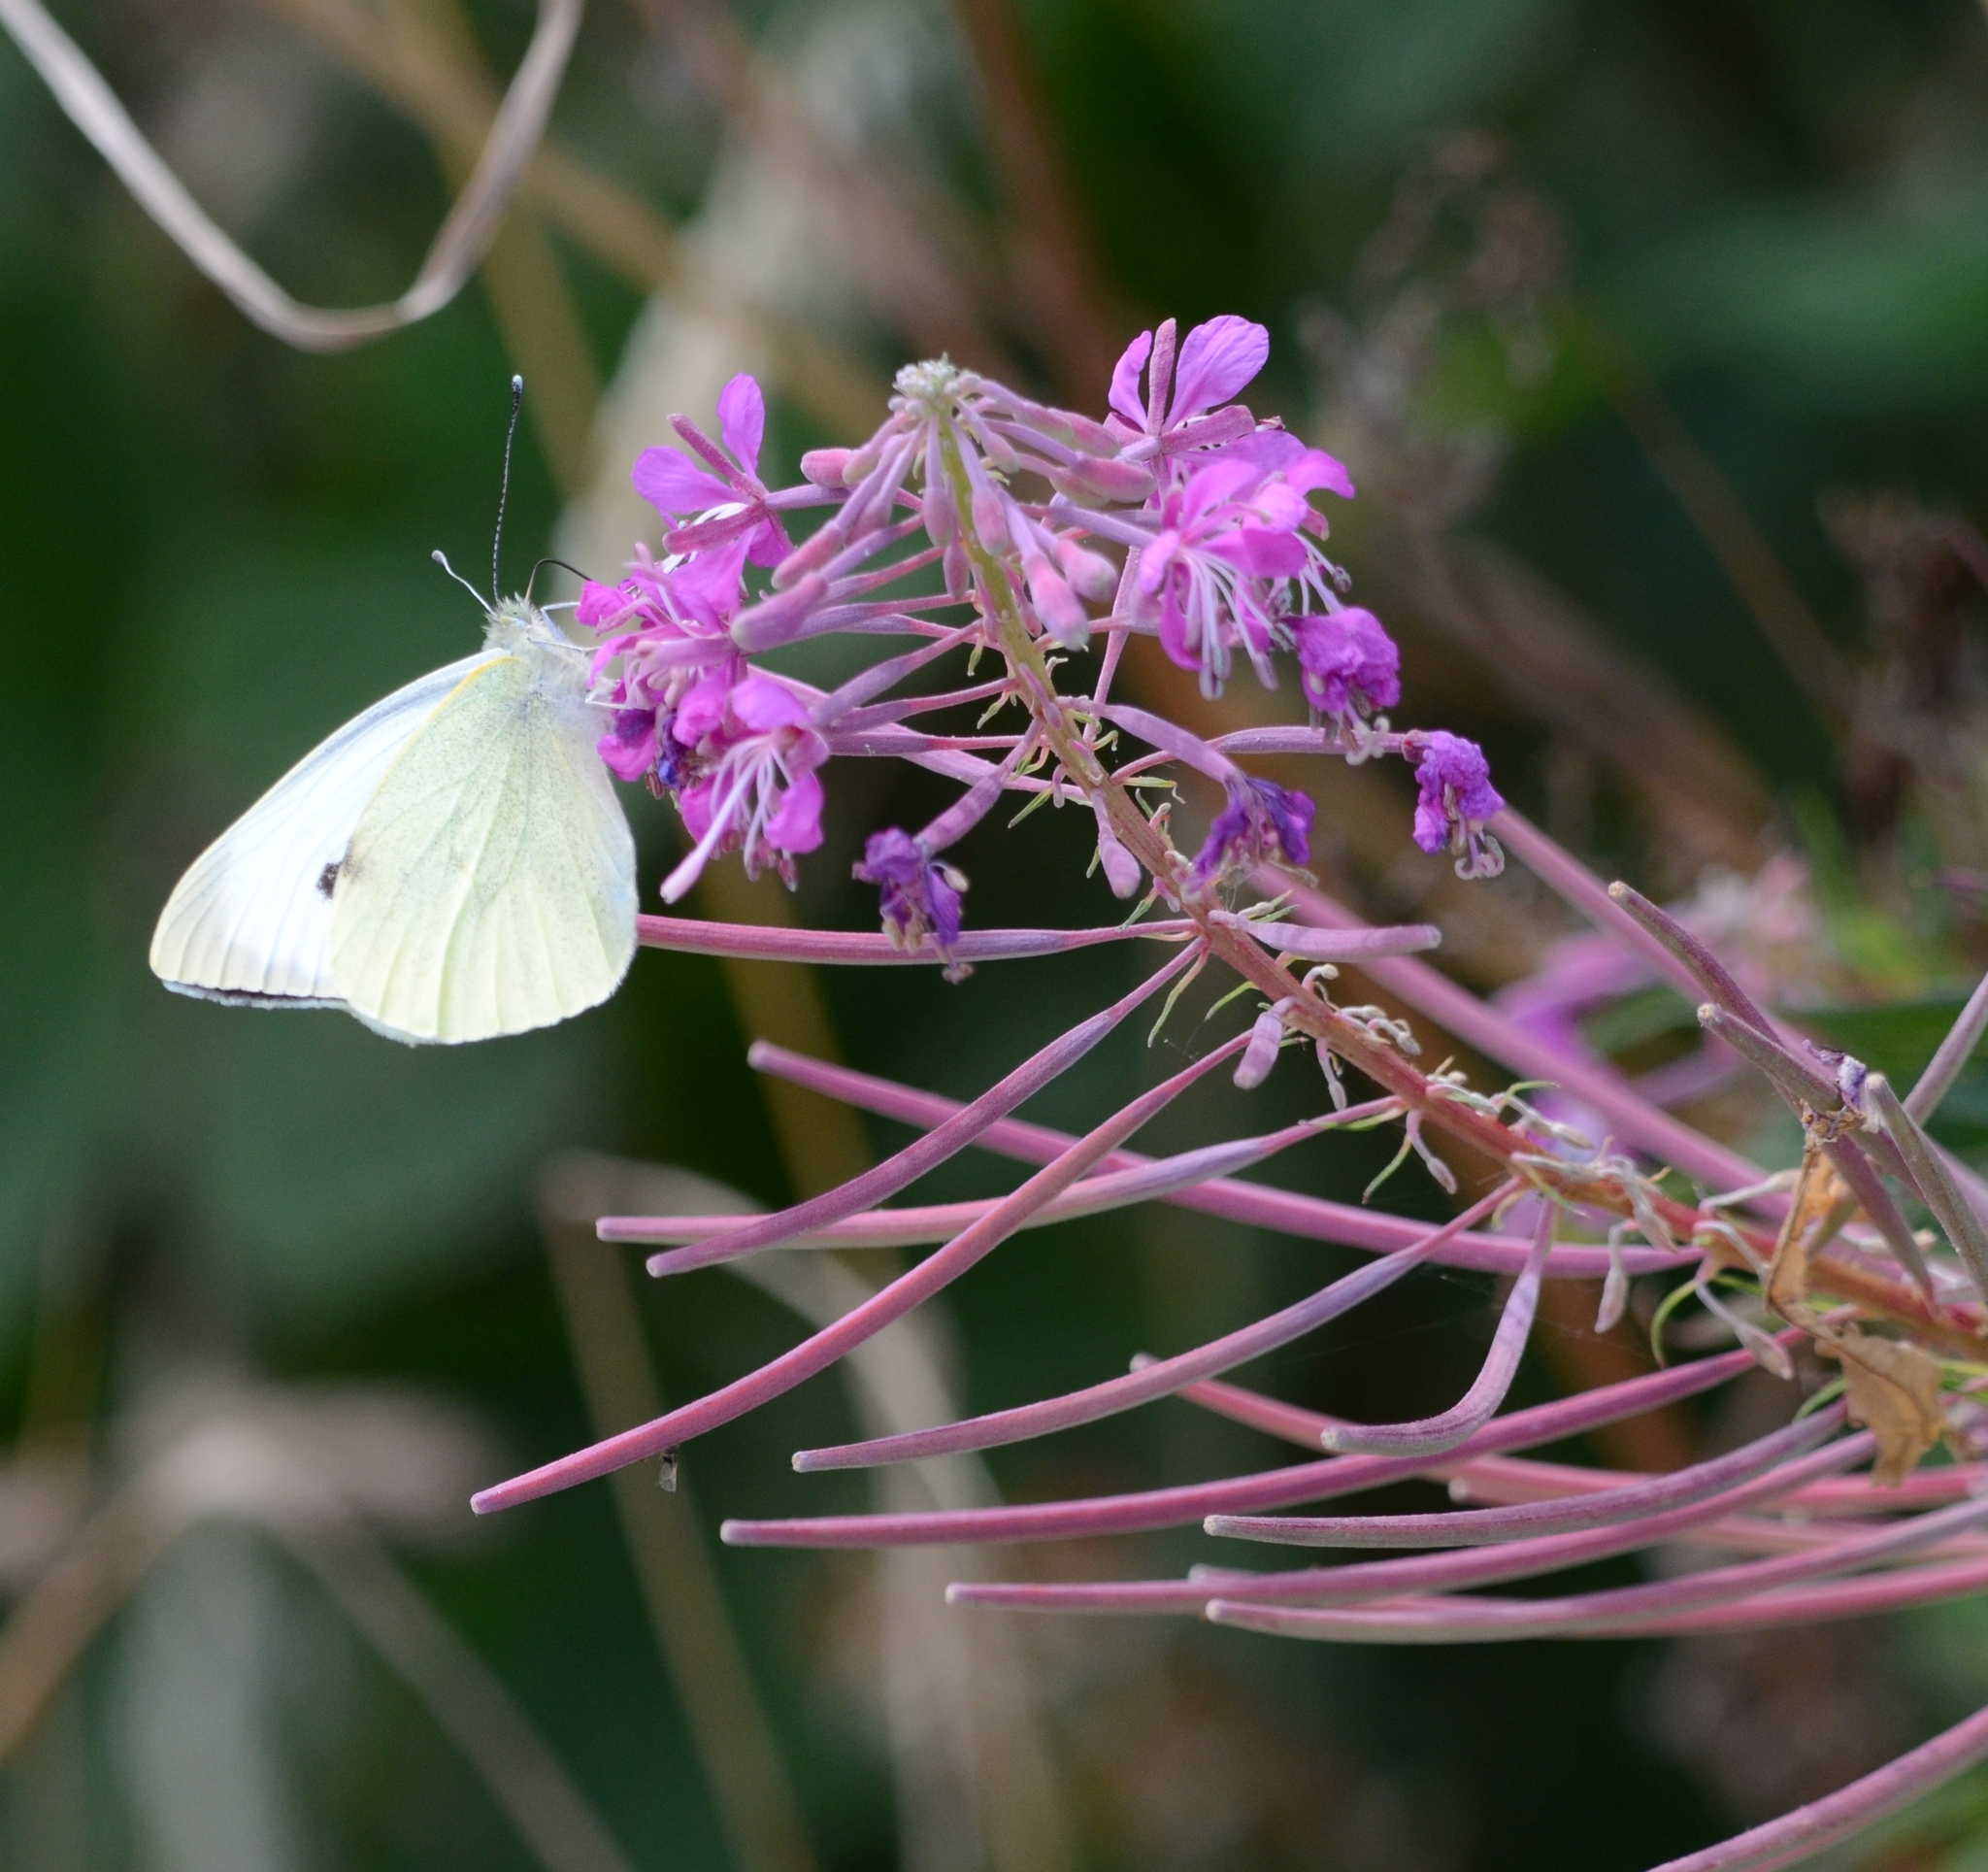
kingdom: Animalia
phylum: Arthropoda
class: Insecta
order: Lepidoptera
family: Pieridae
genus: Pieris
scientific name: Pieris brassicae
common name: Large white
